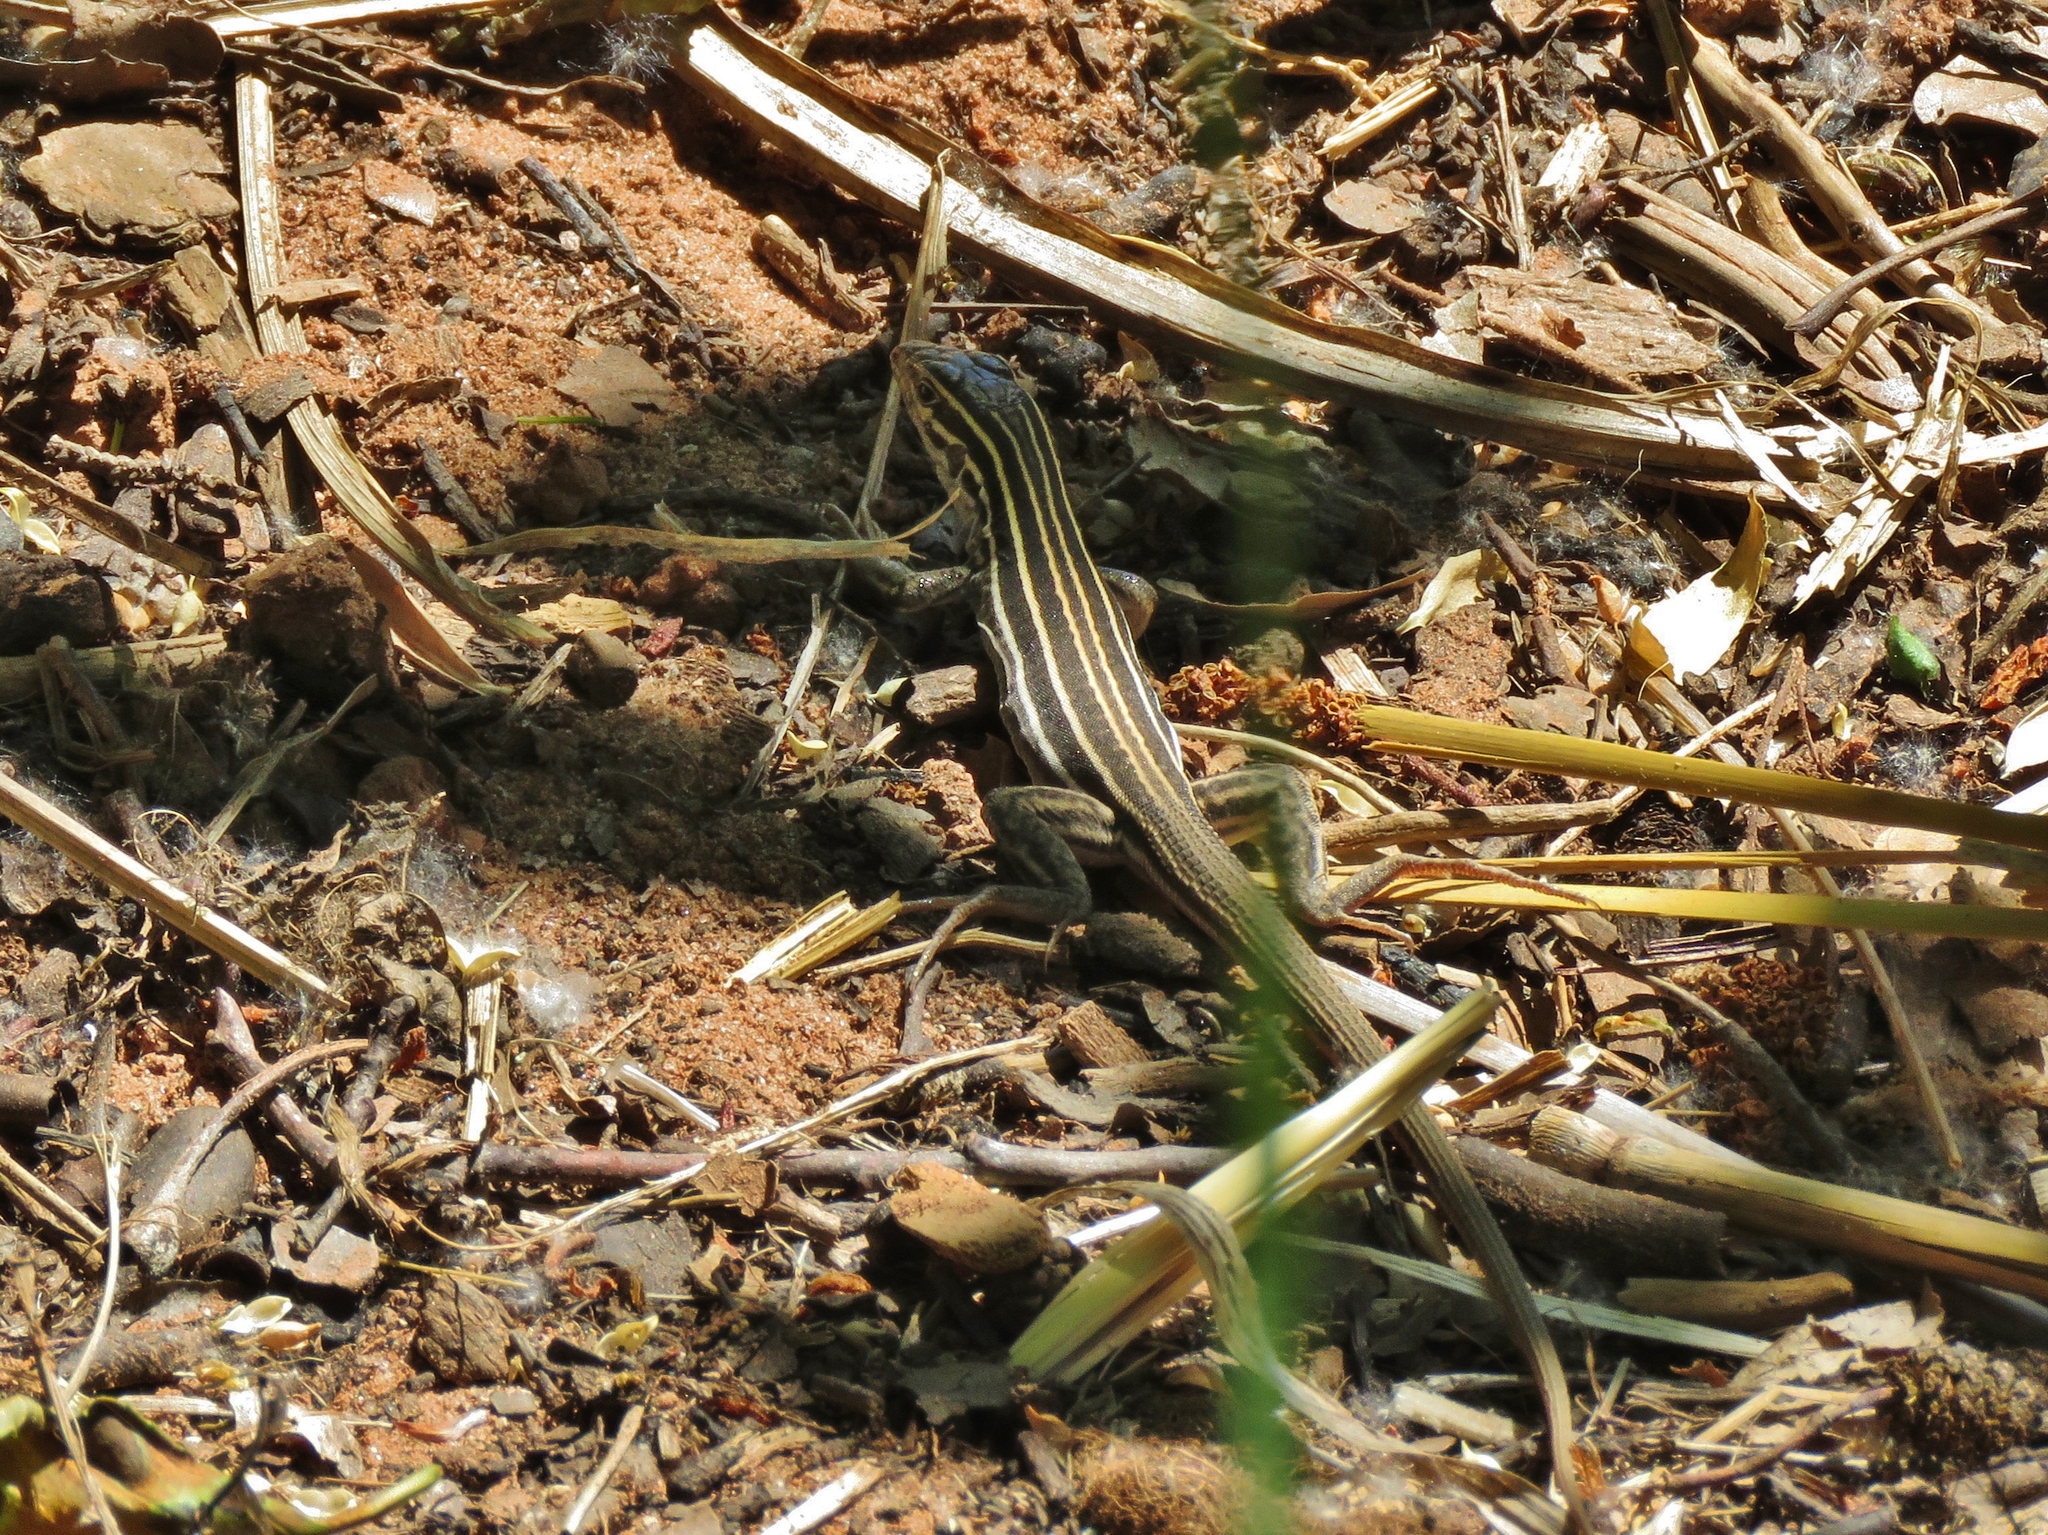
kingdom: Animalia
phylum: Chordata
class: Squamata
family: Teiidae
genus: Aspidoscelis
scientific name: Aspidoscelis velox
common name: Plateau striped whiptail
